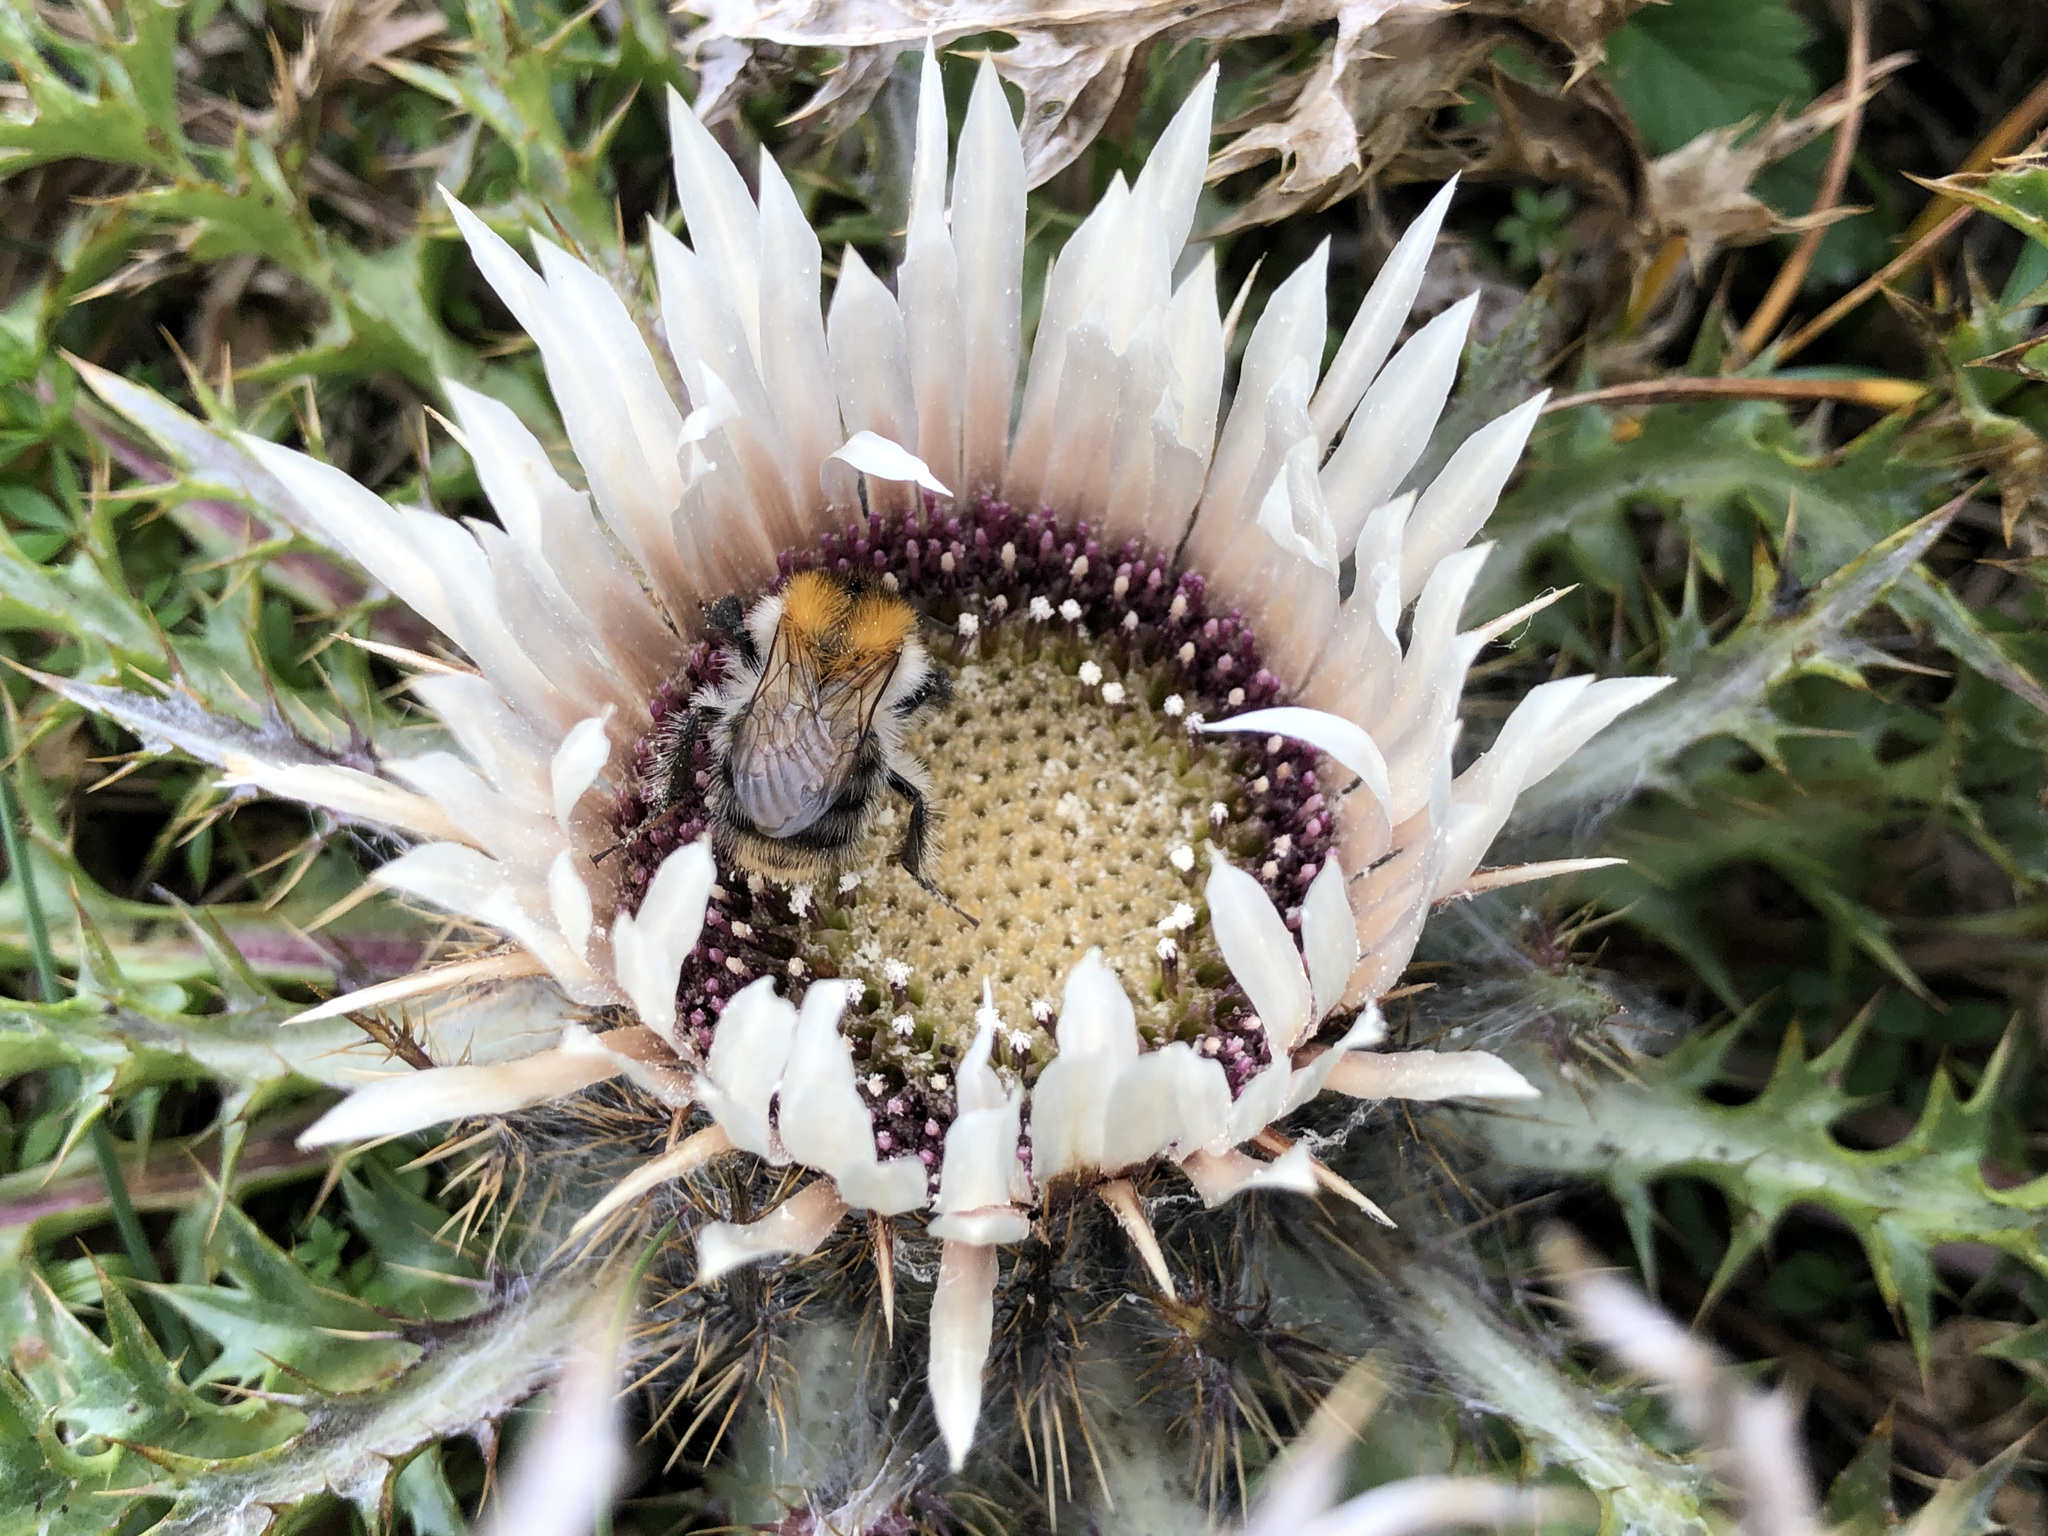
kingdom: Animalia
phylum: Arthropoda
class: Insecta
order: Hymenoptera
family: Apidae
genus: Bombus
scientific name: Bombus pascuorum
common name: Common carder bee
